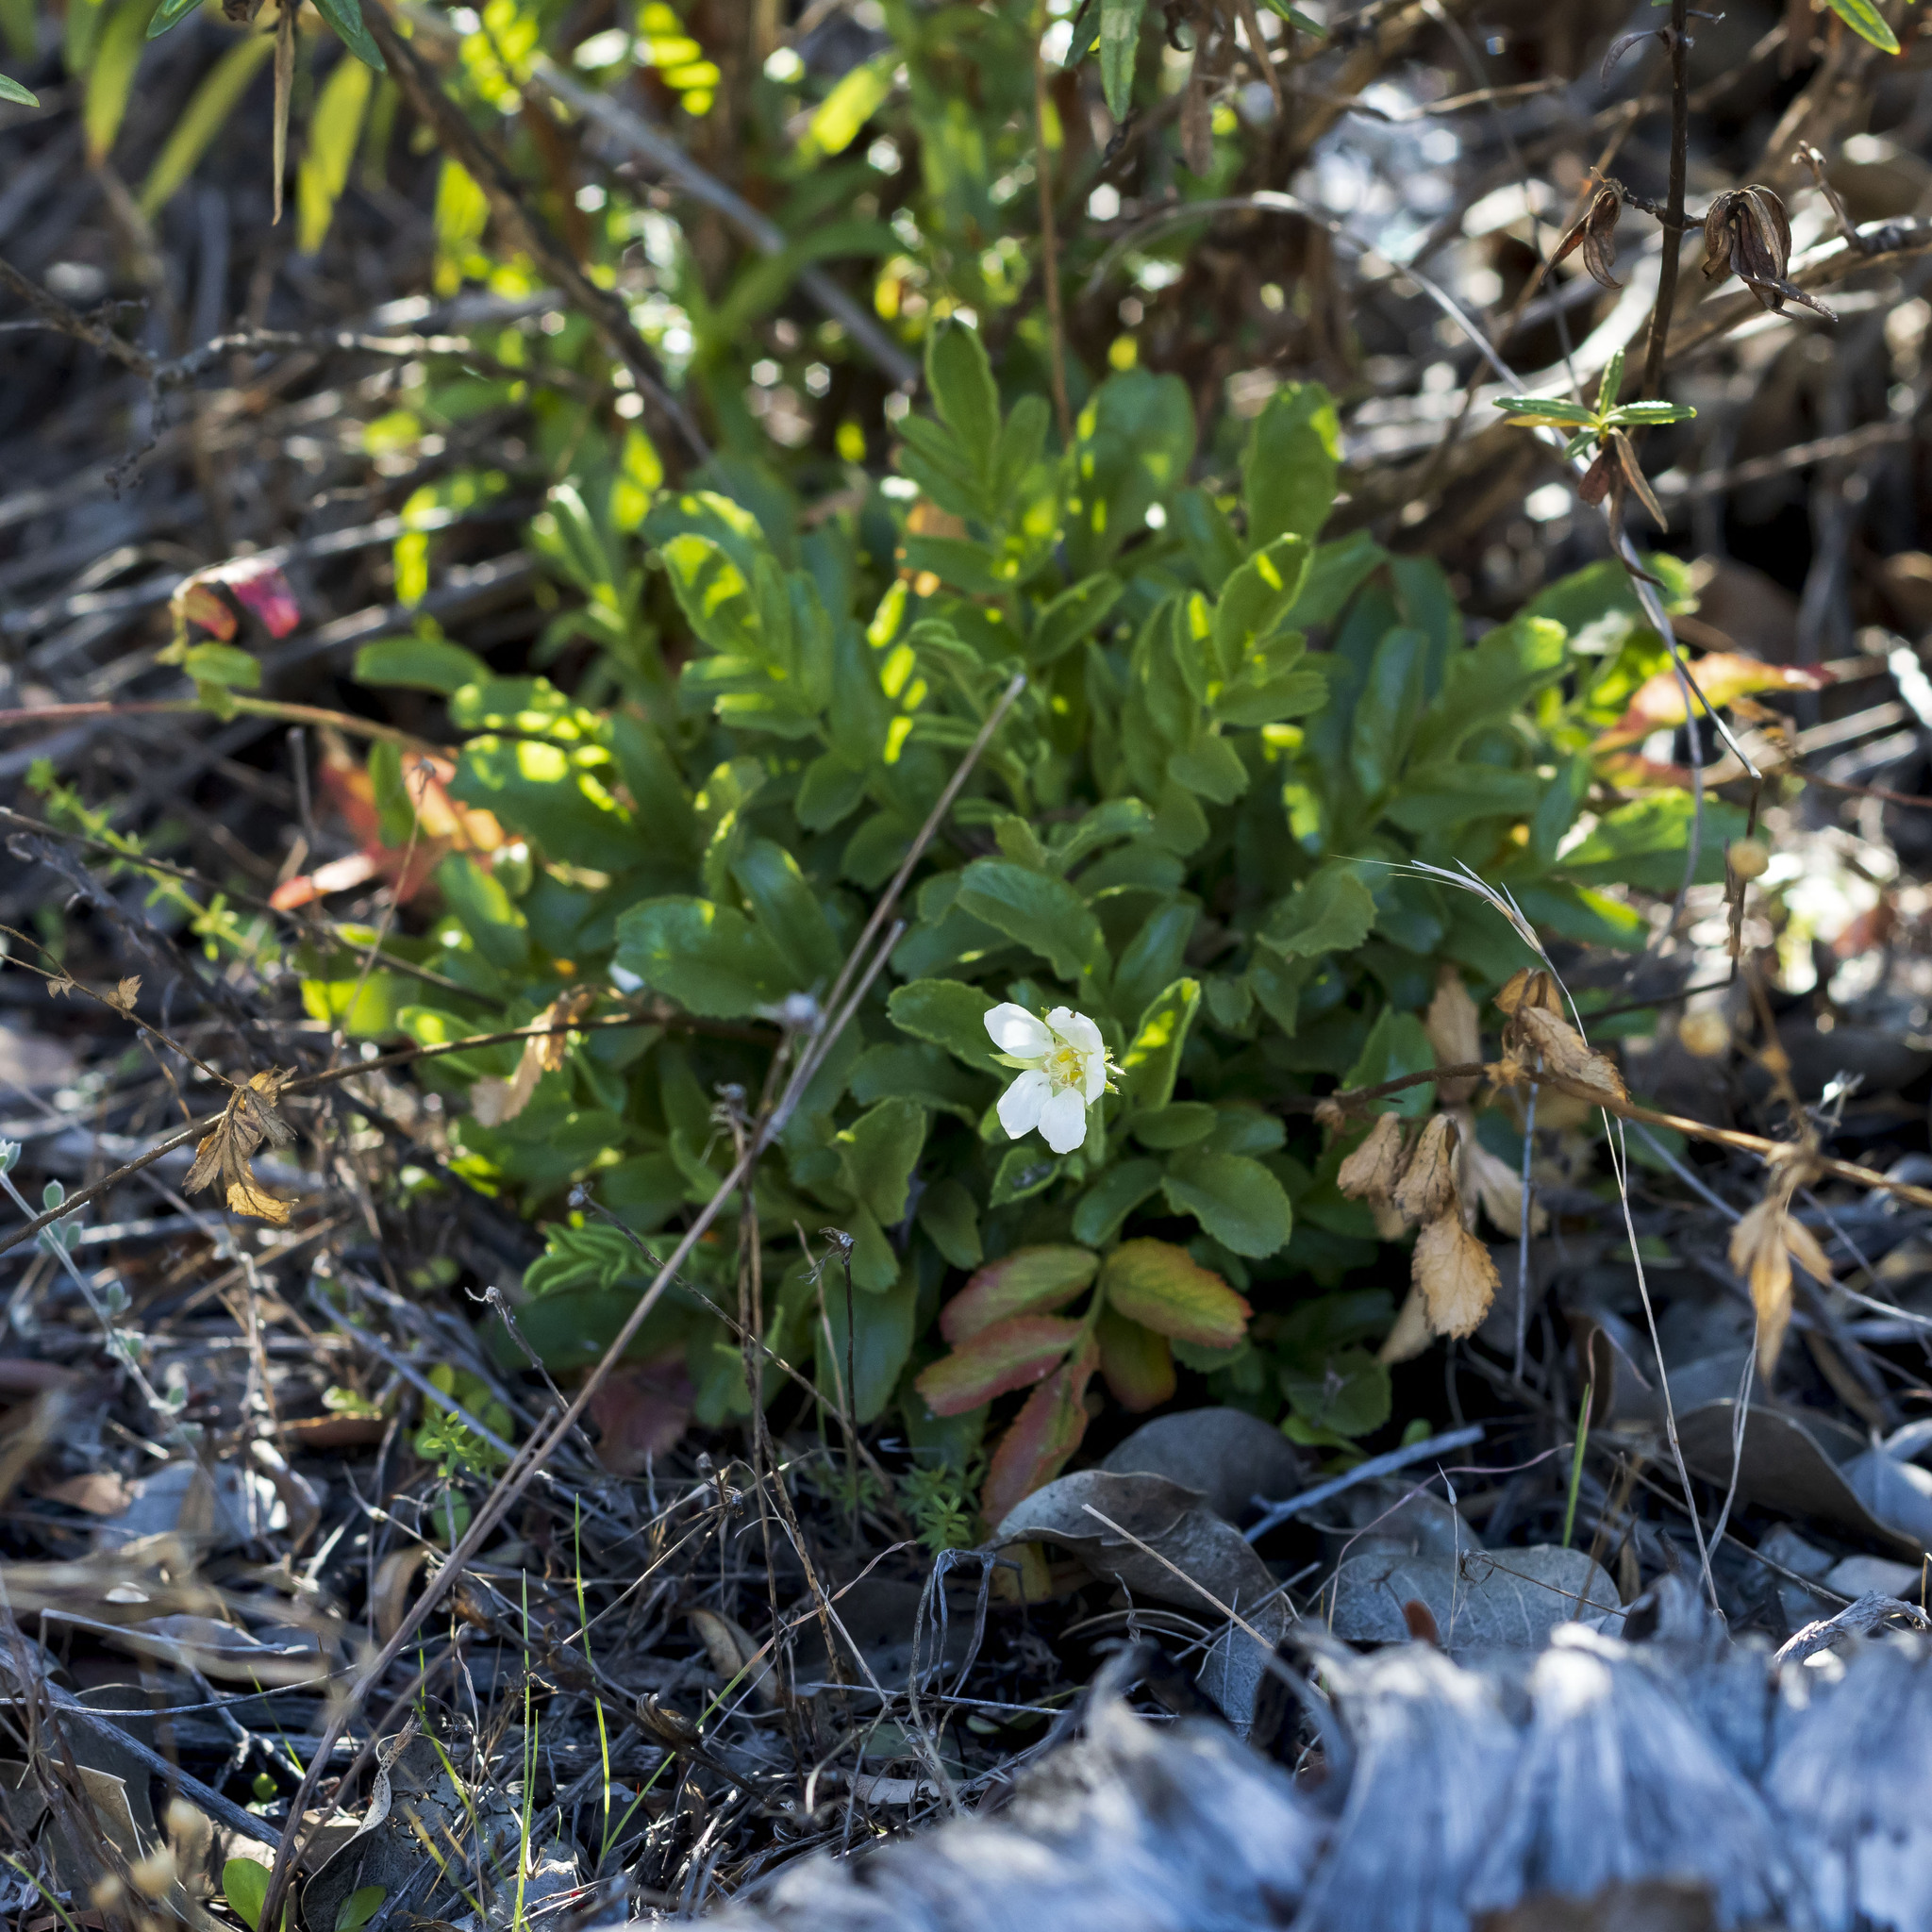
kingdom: Plantae
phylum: Tracheophyta
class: Magnoliopsida
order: Rosales
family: Rosaceae
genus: Potentilla
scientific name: Potentilla truncata
